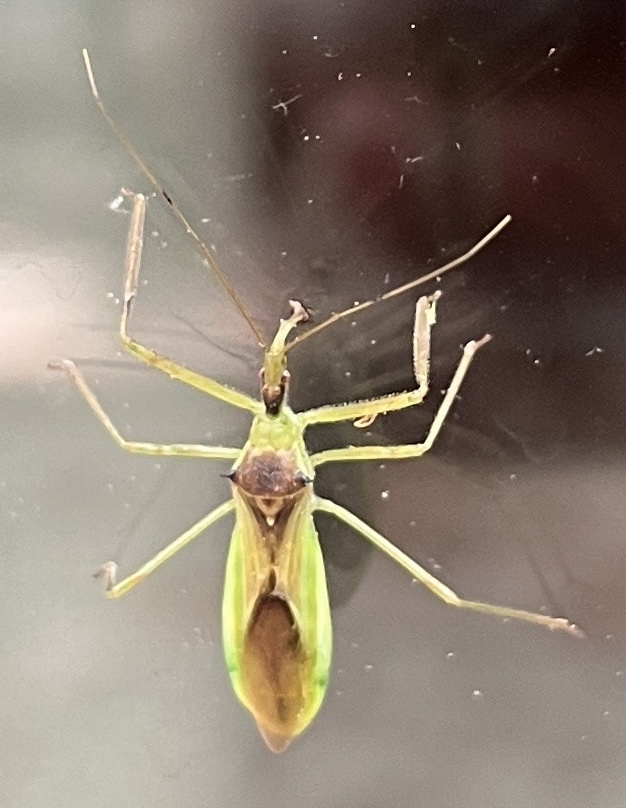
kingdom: Animalia
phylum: Arthropoda
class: Insecta
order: Hemiptera
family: Reduviidae
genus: Zelus
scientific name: Zelus luridus
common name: Pale green assassin bug
